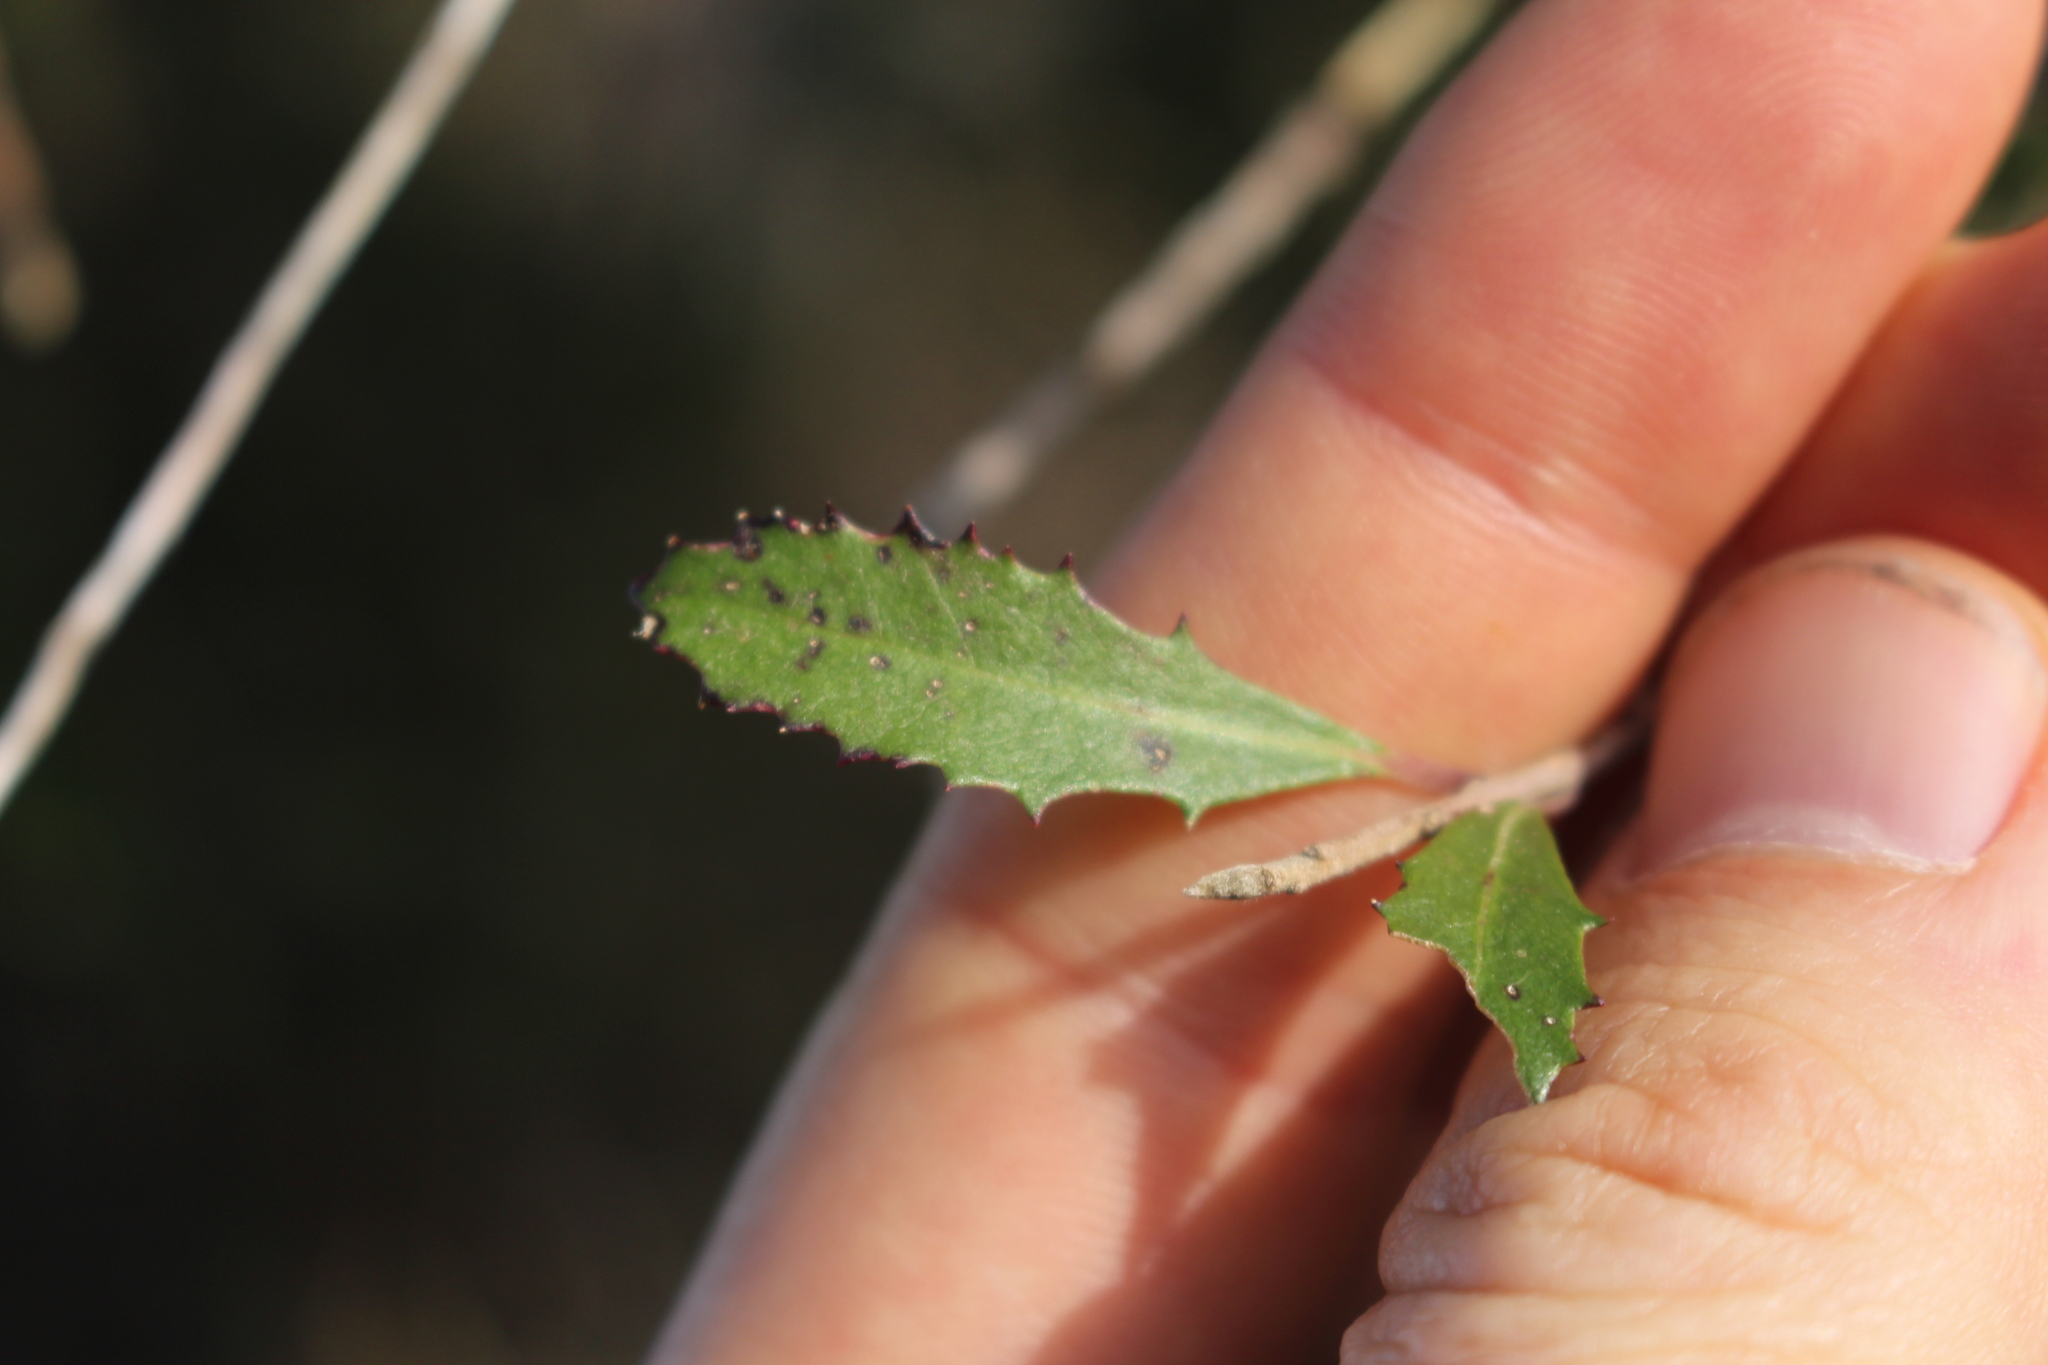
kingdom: Plantae
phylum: Tracheophyta
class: Magnoliopsida
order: Malvales
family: Malvaceae
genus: Hoheria
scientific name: Hoheria angustifolia
